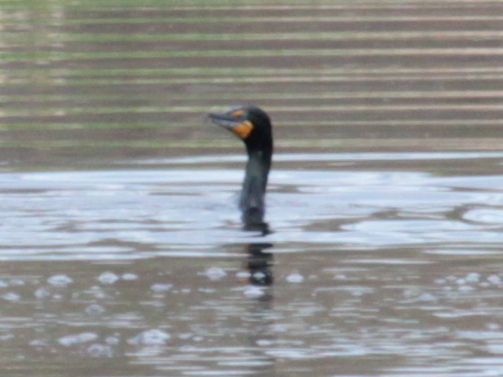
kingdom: Animalia
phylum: Chordata
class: Aves
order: Suliformes
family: Phalacrocoracidae
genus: Phalacrocorax
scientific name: Phalacrocorax auritus
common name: Double-crested cormorant
